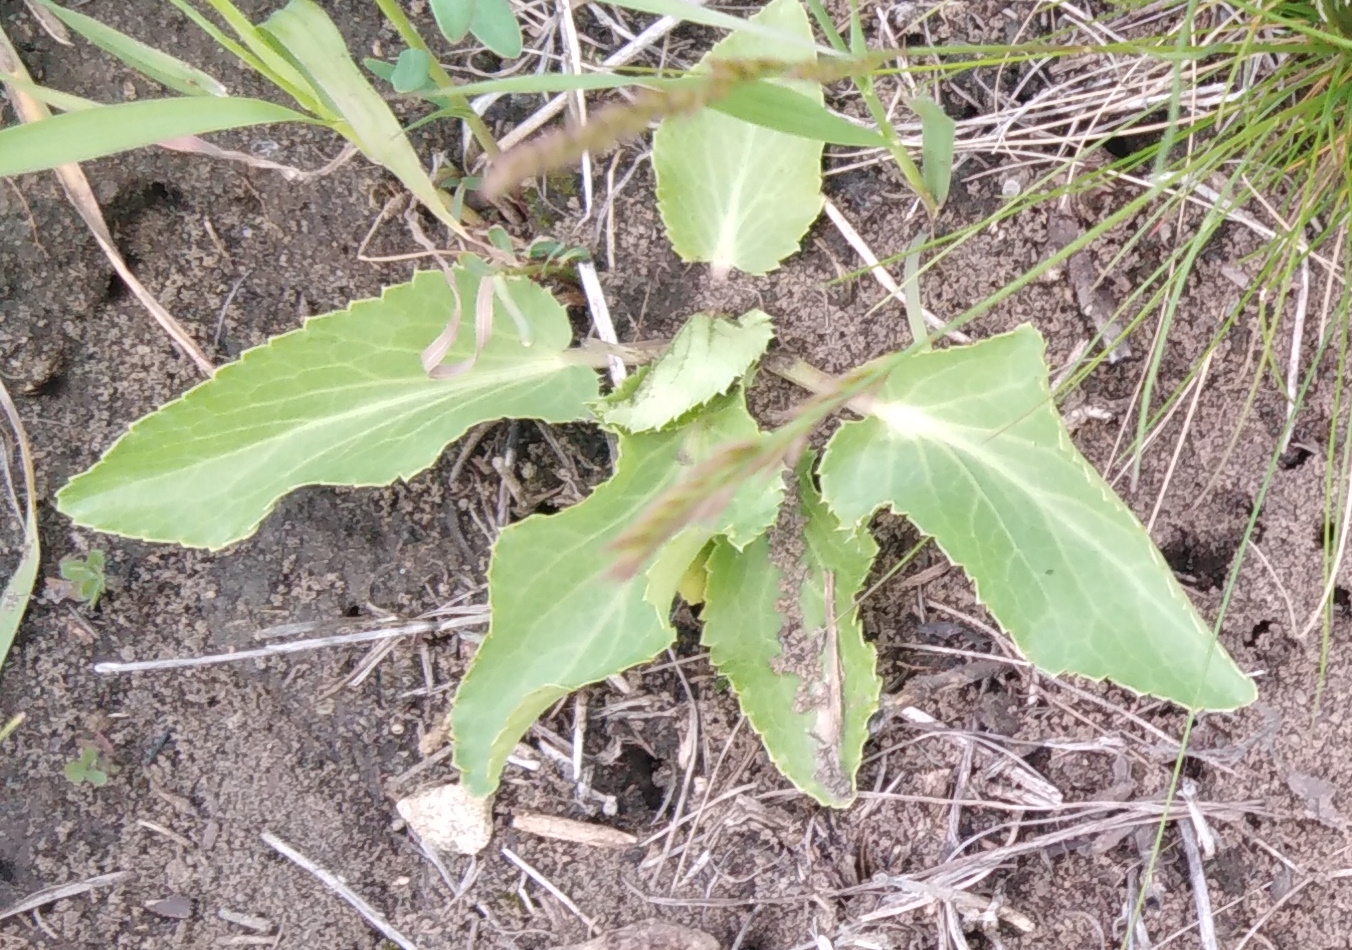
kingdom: Plantae
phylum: Tracheophyta
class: Magnoliopsida
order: Apiales
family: Apiaceae
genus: Eryngium
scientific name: Eryngium planum
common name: Blue eryngo
